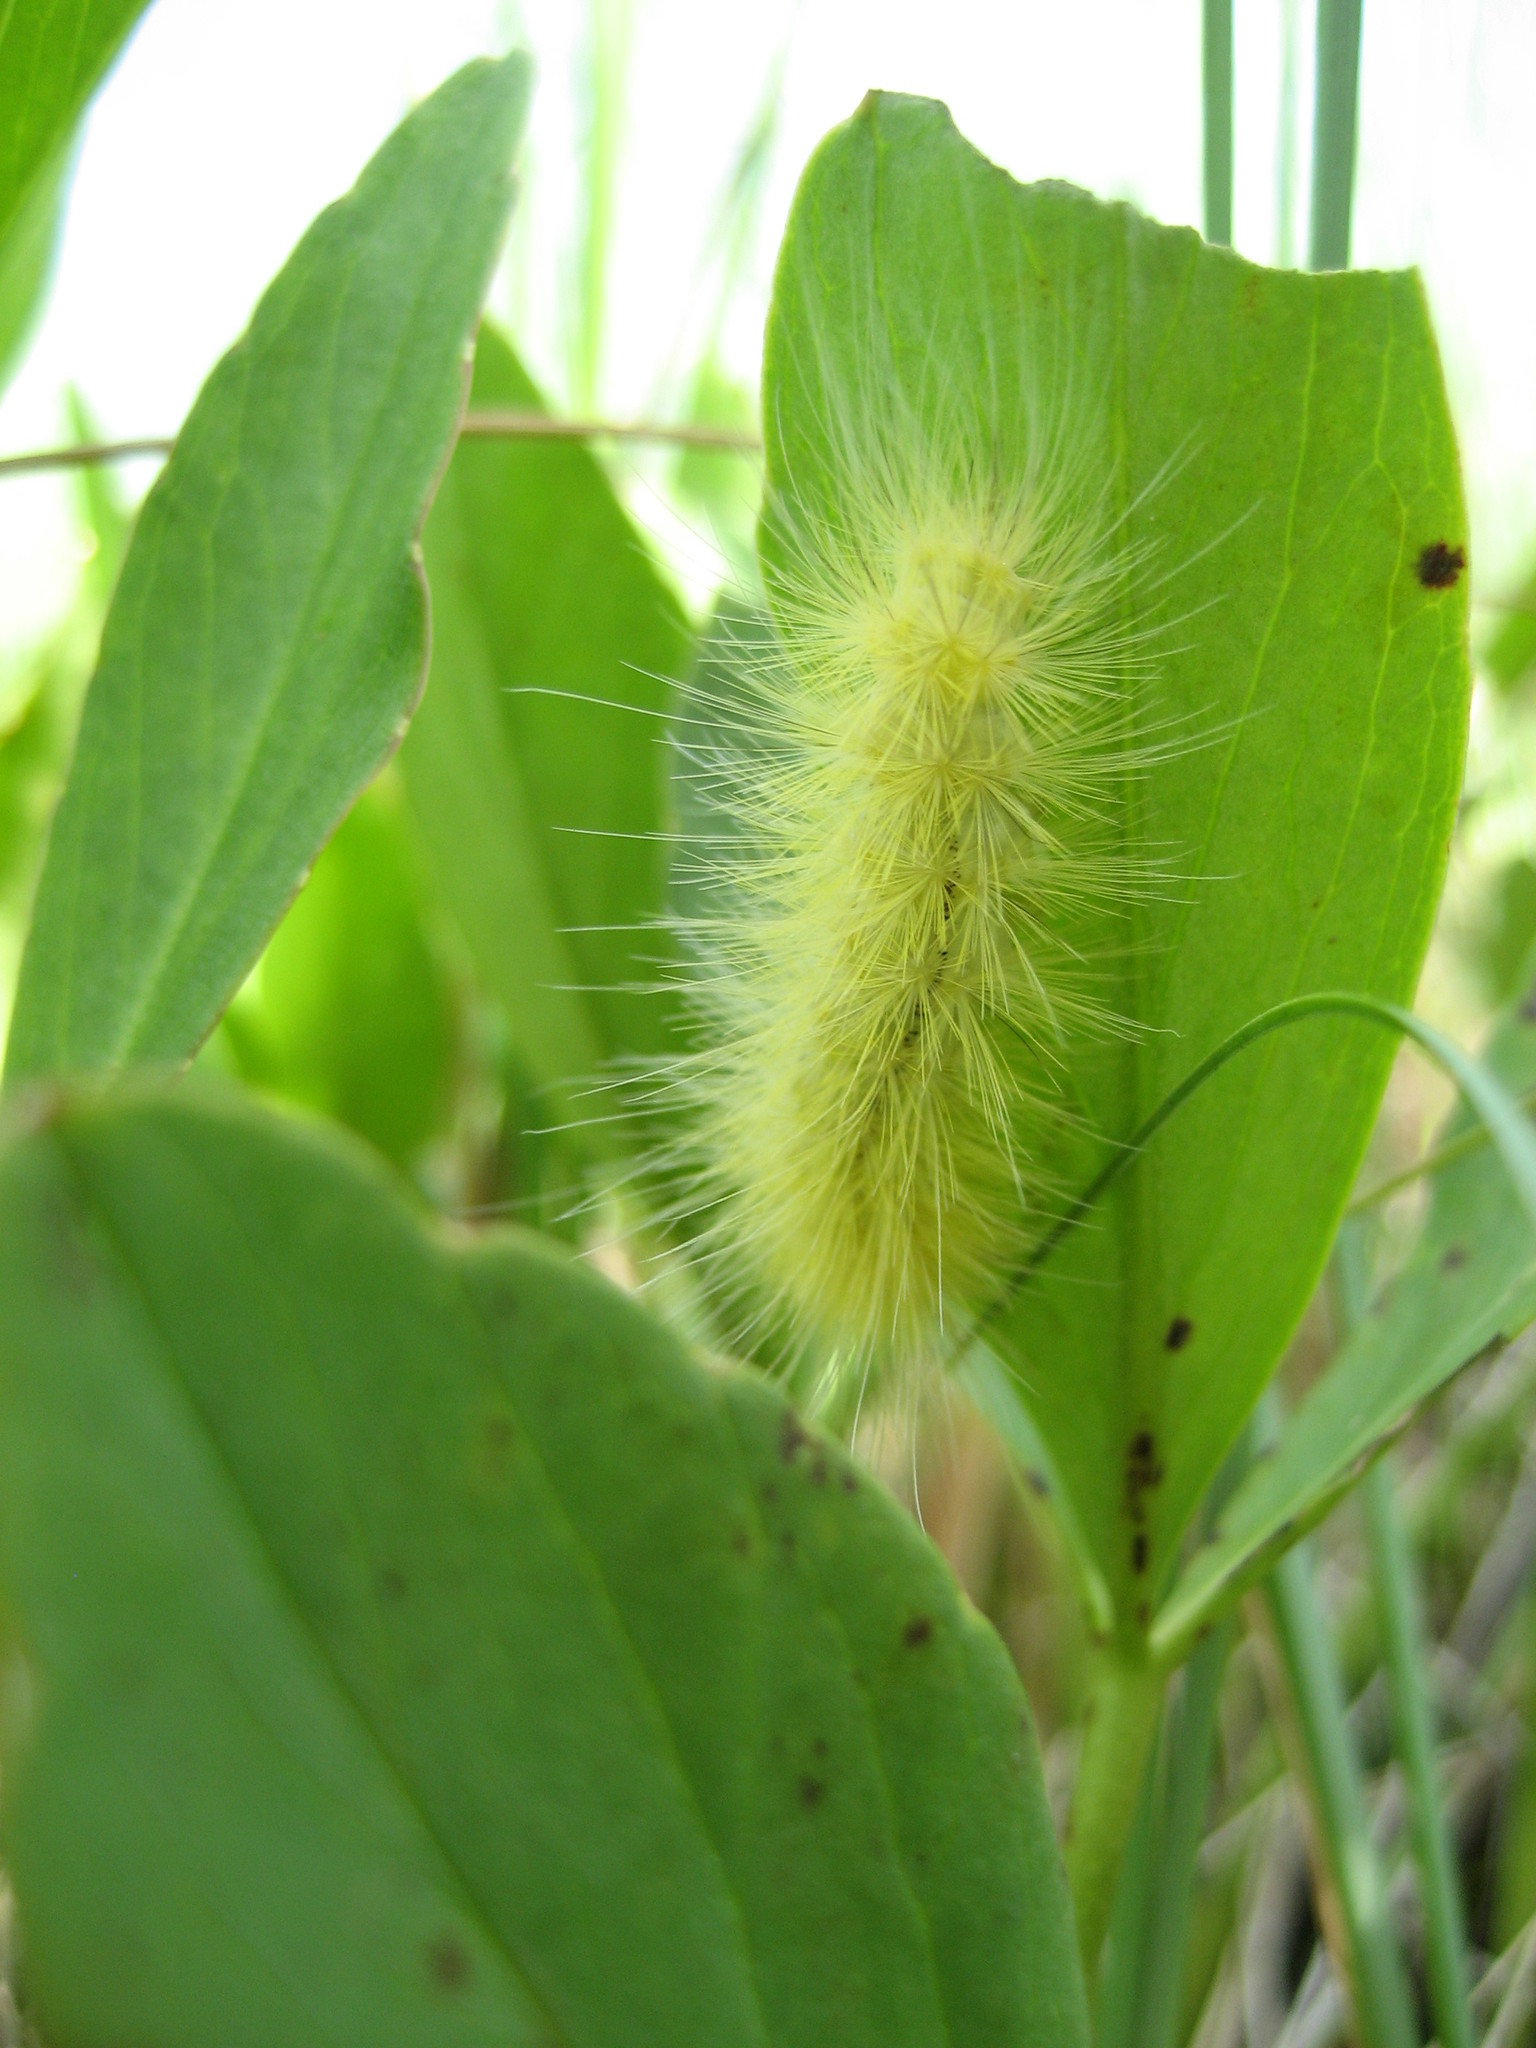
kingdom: Animalia
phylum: Arthropoda
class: Insecta
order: Lepidoptera
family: Erebidae
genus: Spilosoma
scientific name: Spilosoma virginica
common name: Virginia tiger moth
